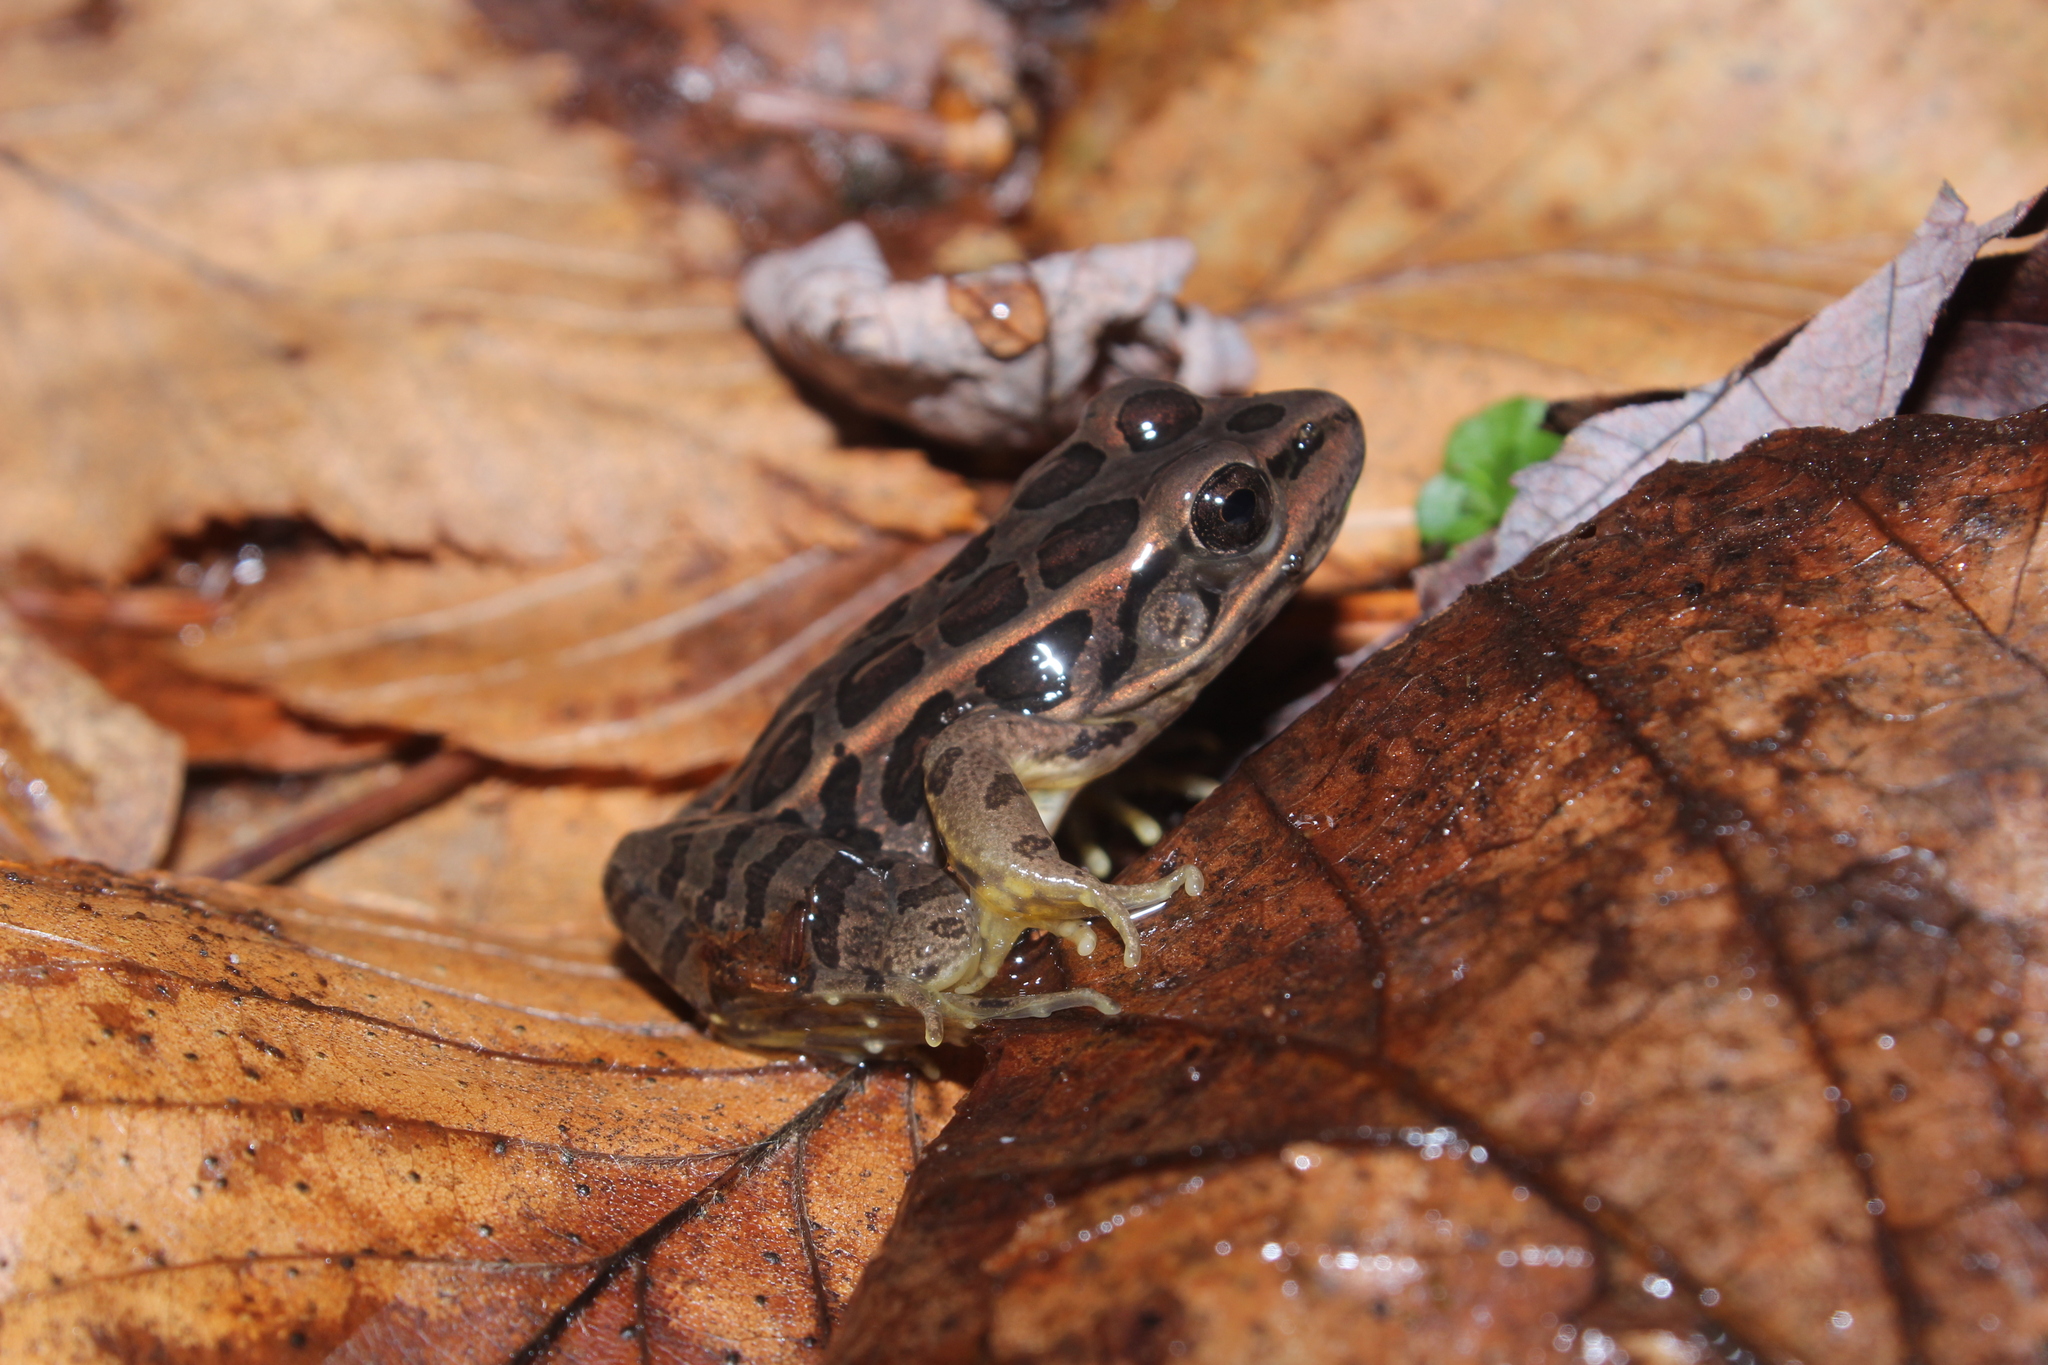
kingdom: Animalia
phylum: Chordata
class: Amphibia
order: Anura
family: Ranidae
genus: Lithobates
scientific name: Lithobates palustris
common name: Pickerel frog
